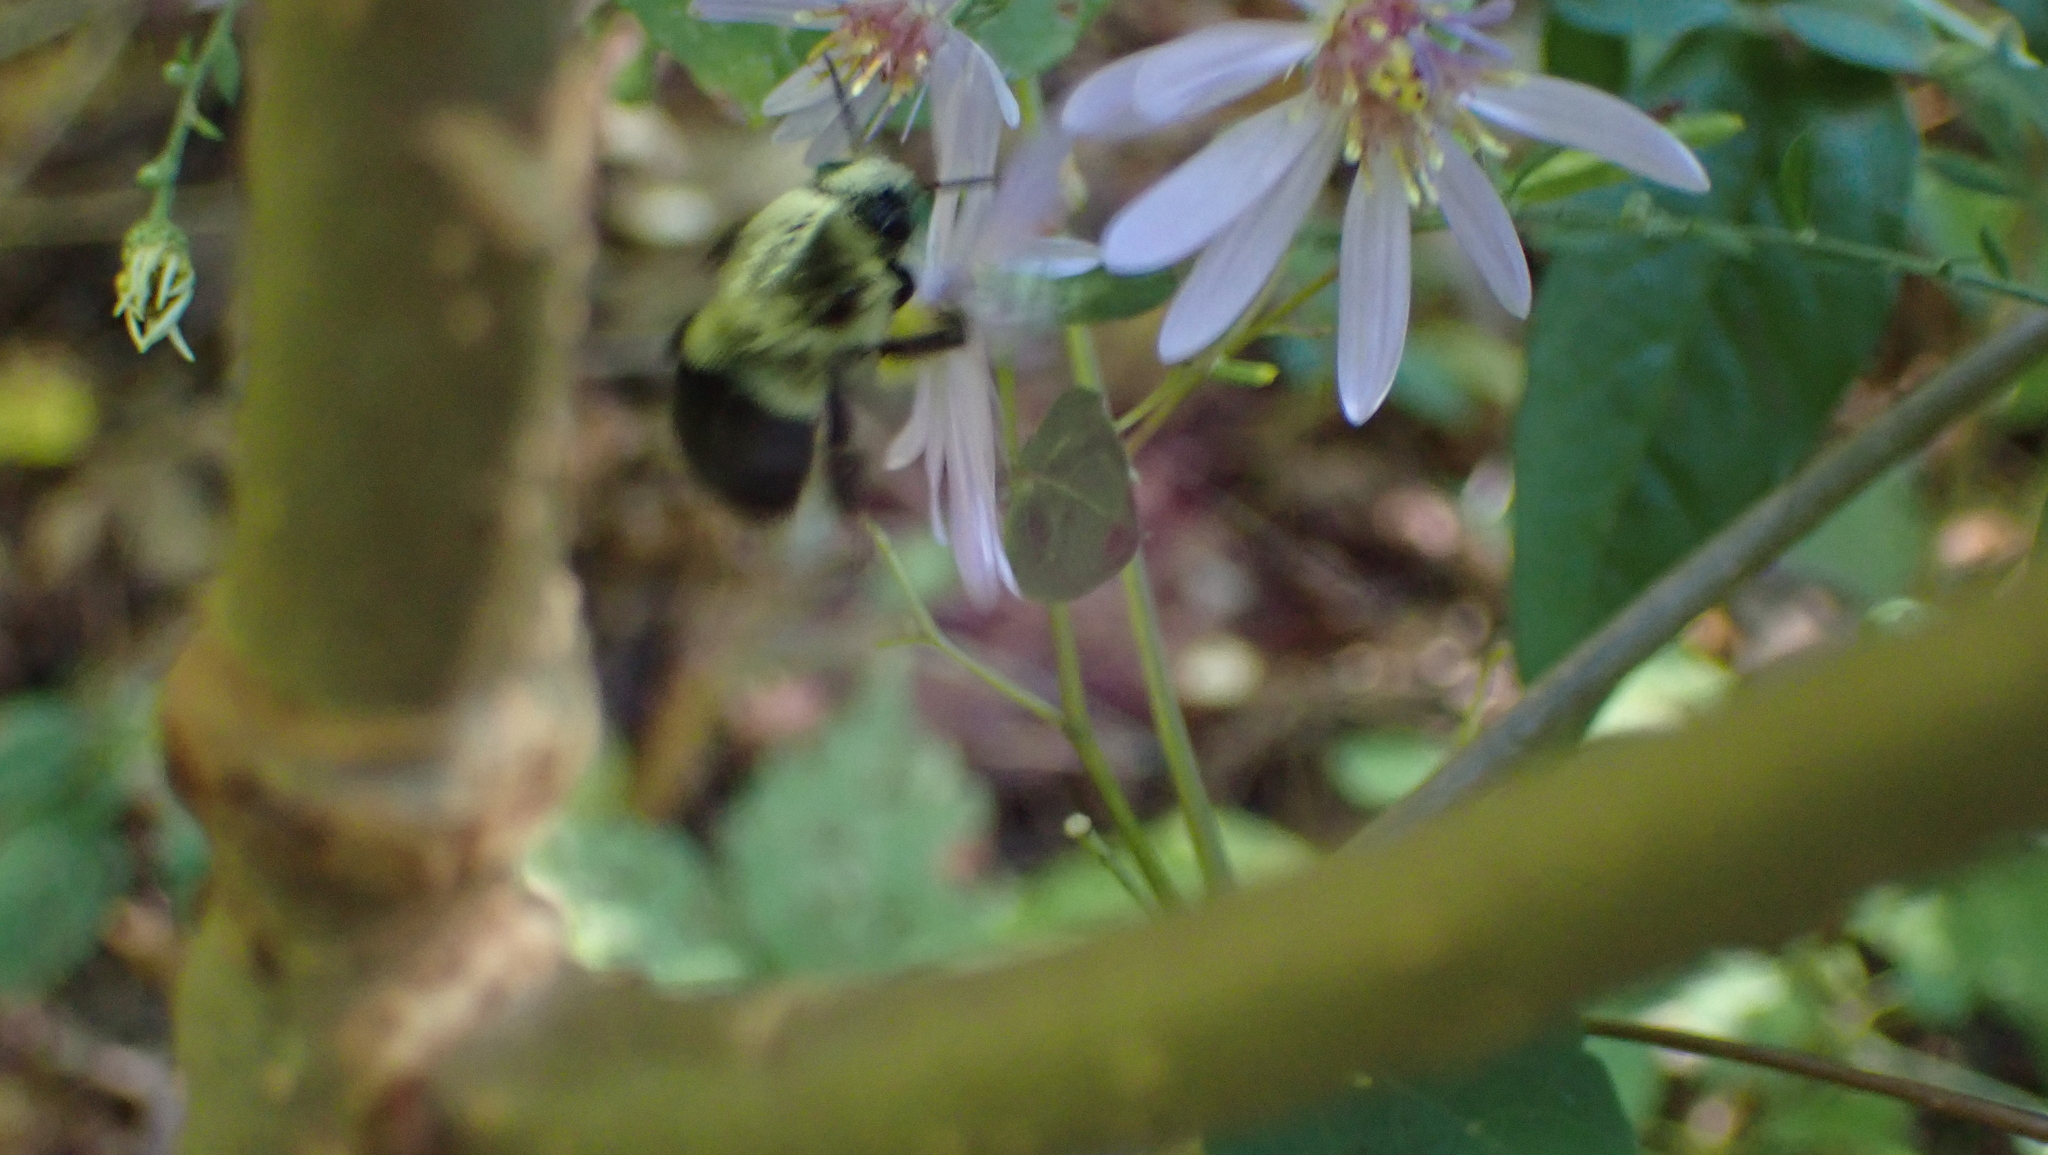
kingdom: Animalia
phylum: Arthropoda
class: Insecta
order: Hymenoptera
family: Apidae
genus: Bombus
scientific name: Bombus impatiens
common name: Common eastern bumble bee
